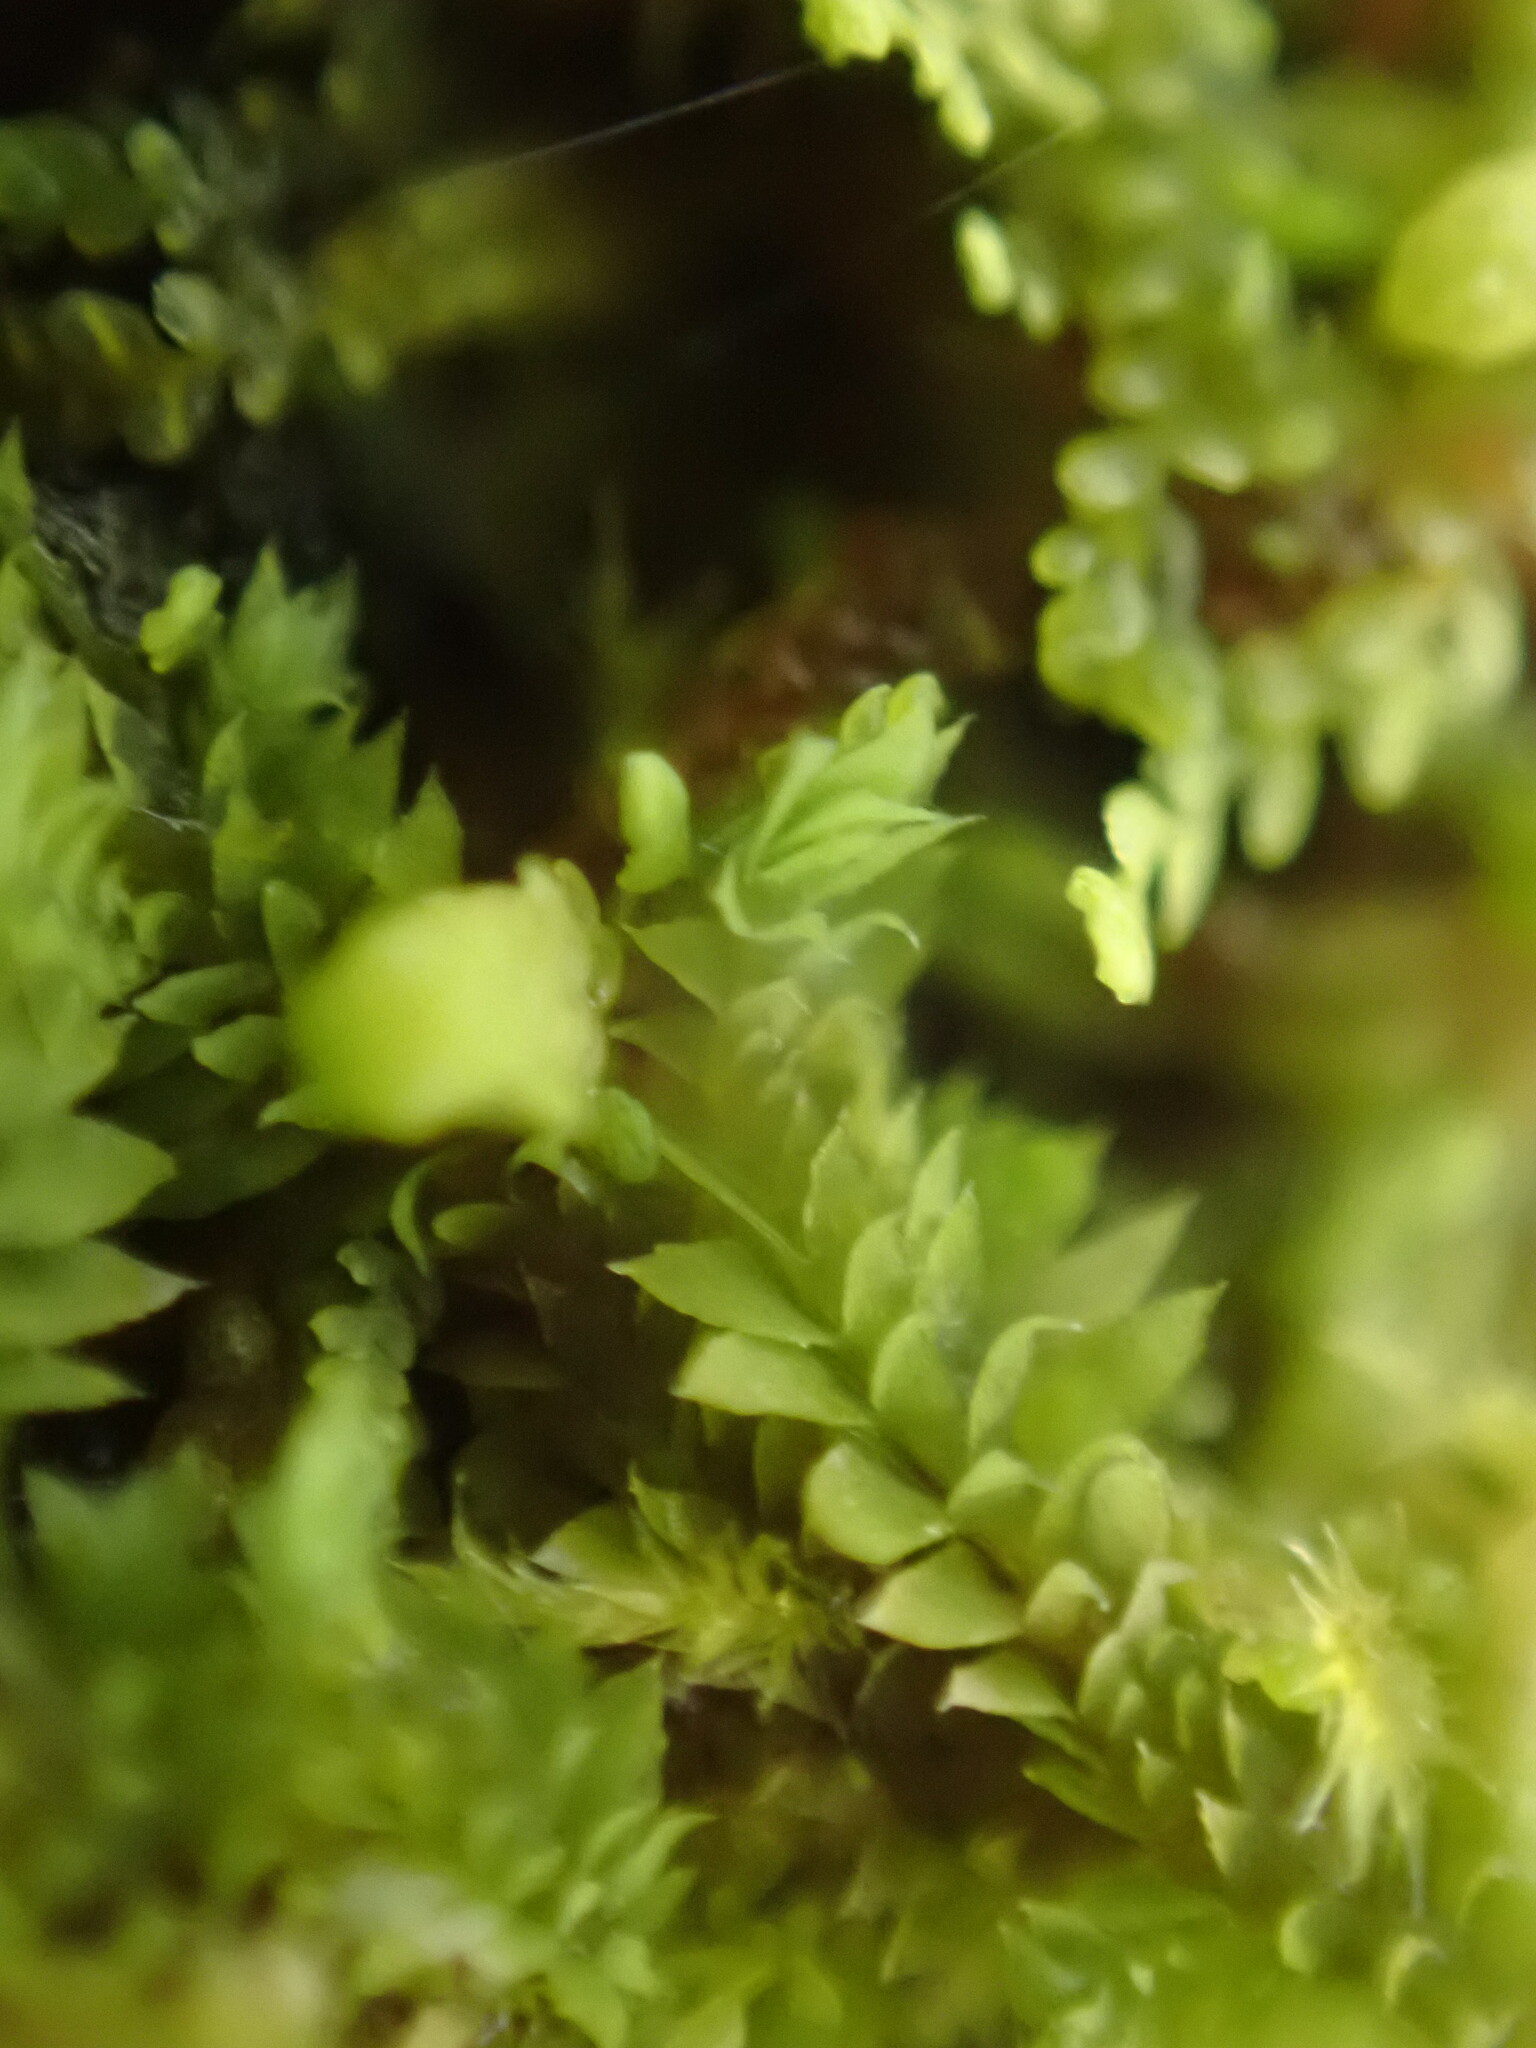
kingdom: Plantae
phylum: Marchantiophyta
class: Jungermanniopsida
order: Jungermanniales
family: Scapaniaceae
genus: Douinia
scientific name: Douinia ovata
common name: Waxy earwort
